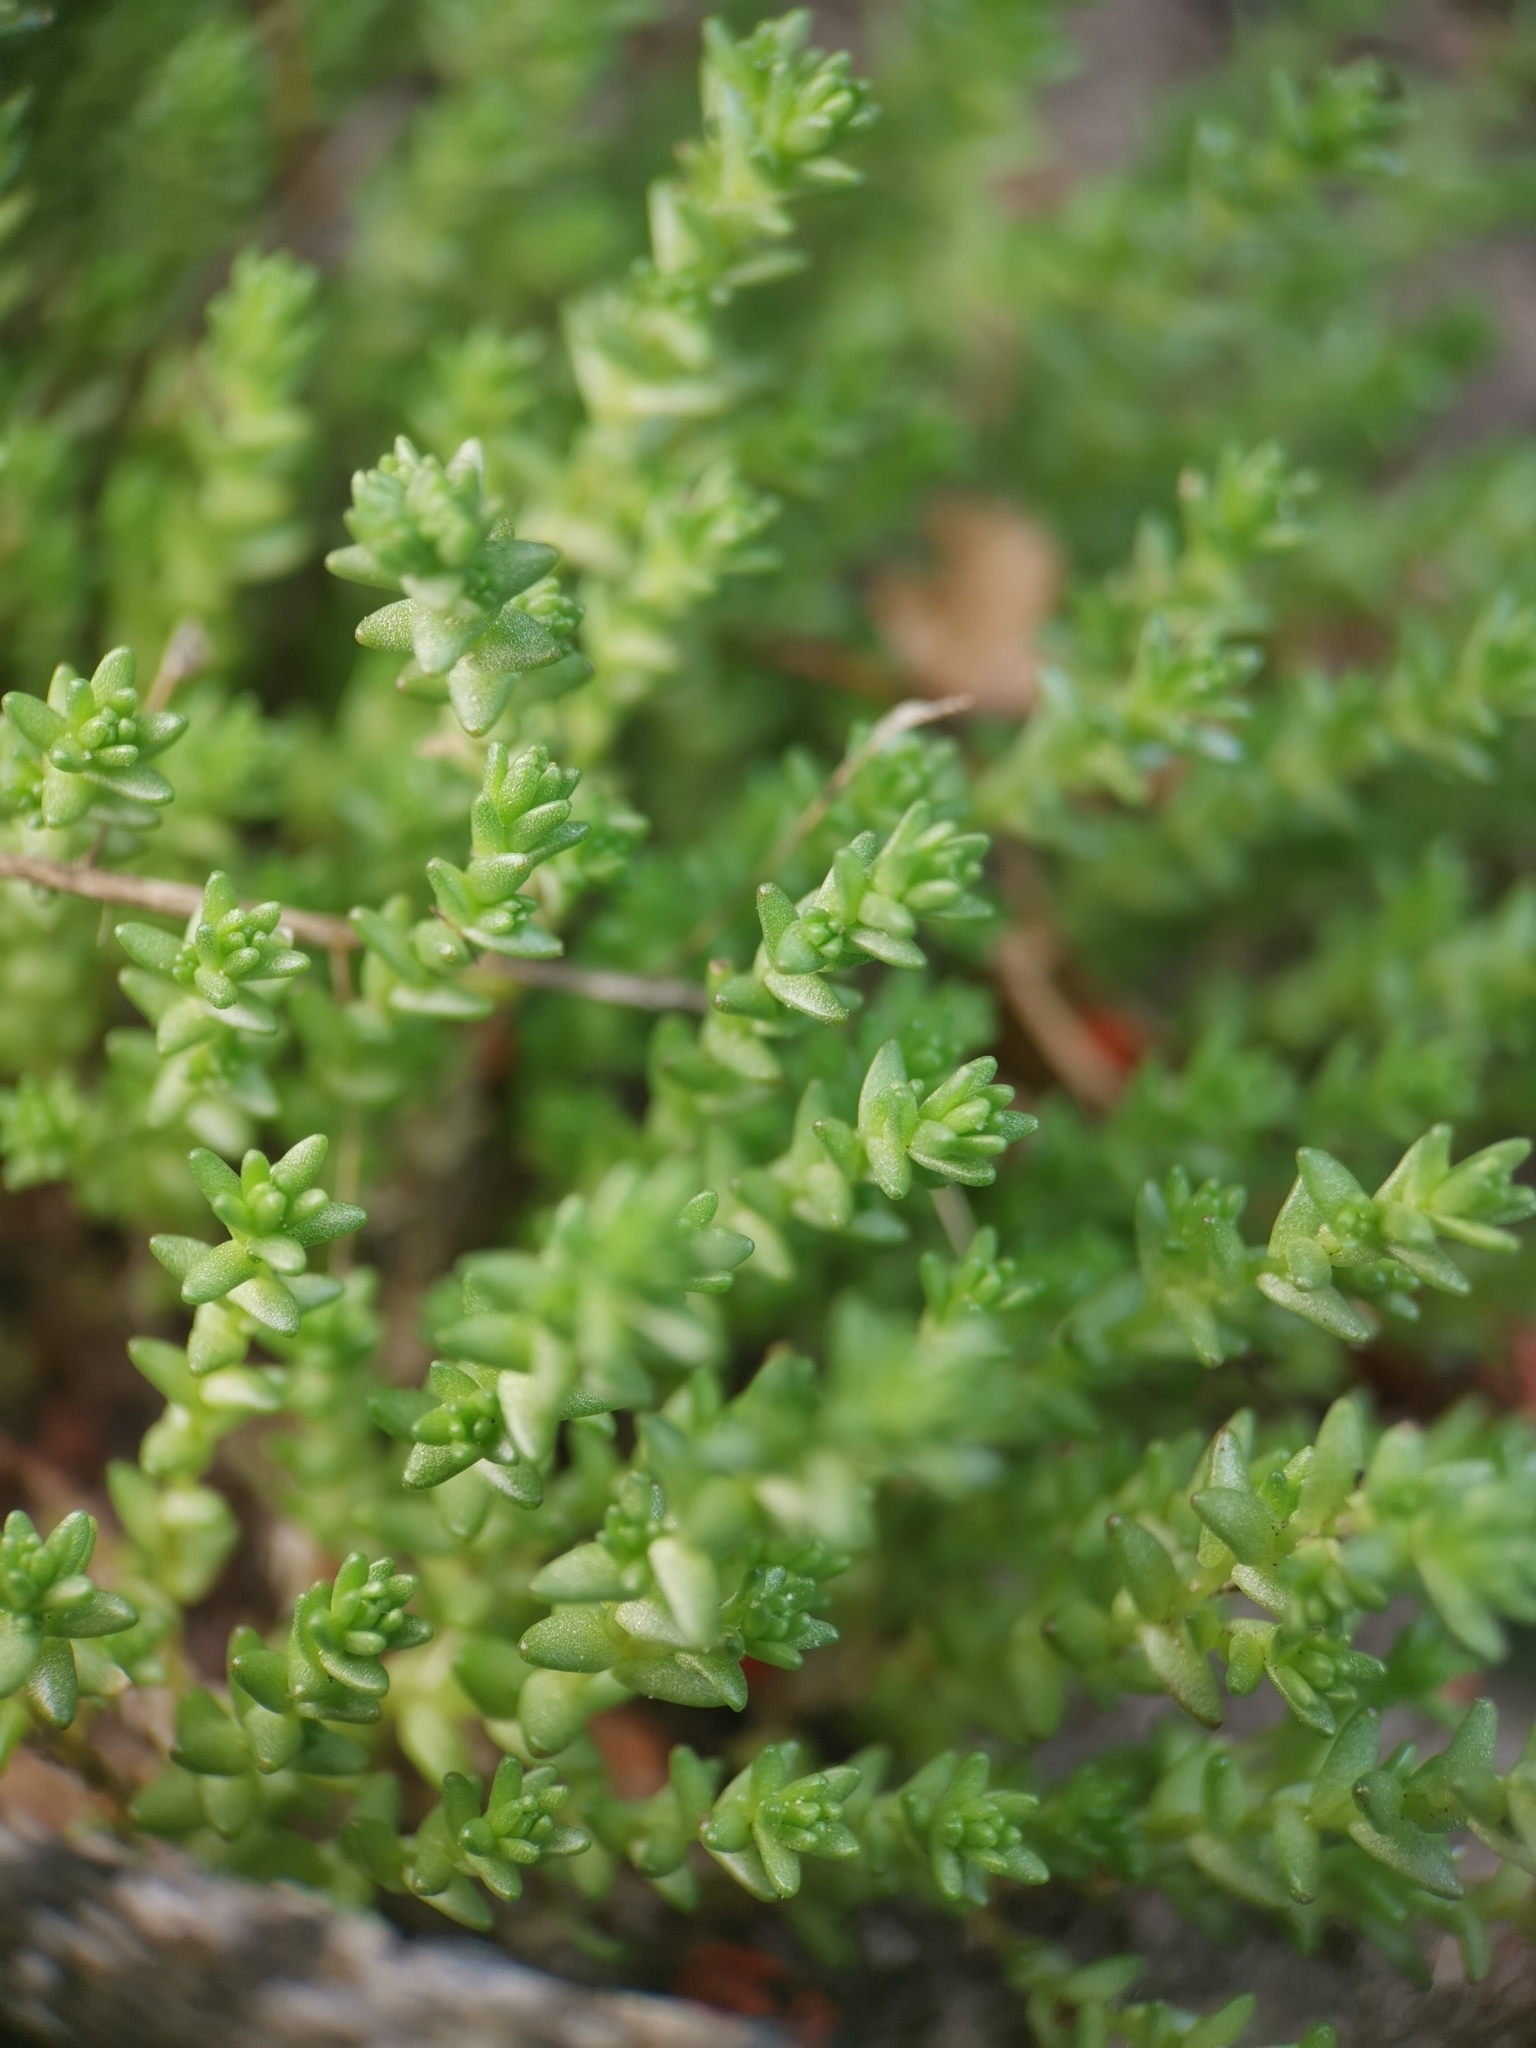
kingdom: Plantae
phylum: Tracheophyta
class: Magnoliopsida
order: Saxifragales
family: Crassulaceae
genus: Sedum
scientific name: Sedum acre
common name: Biting stonecrop
